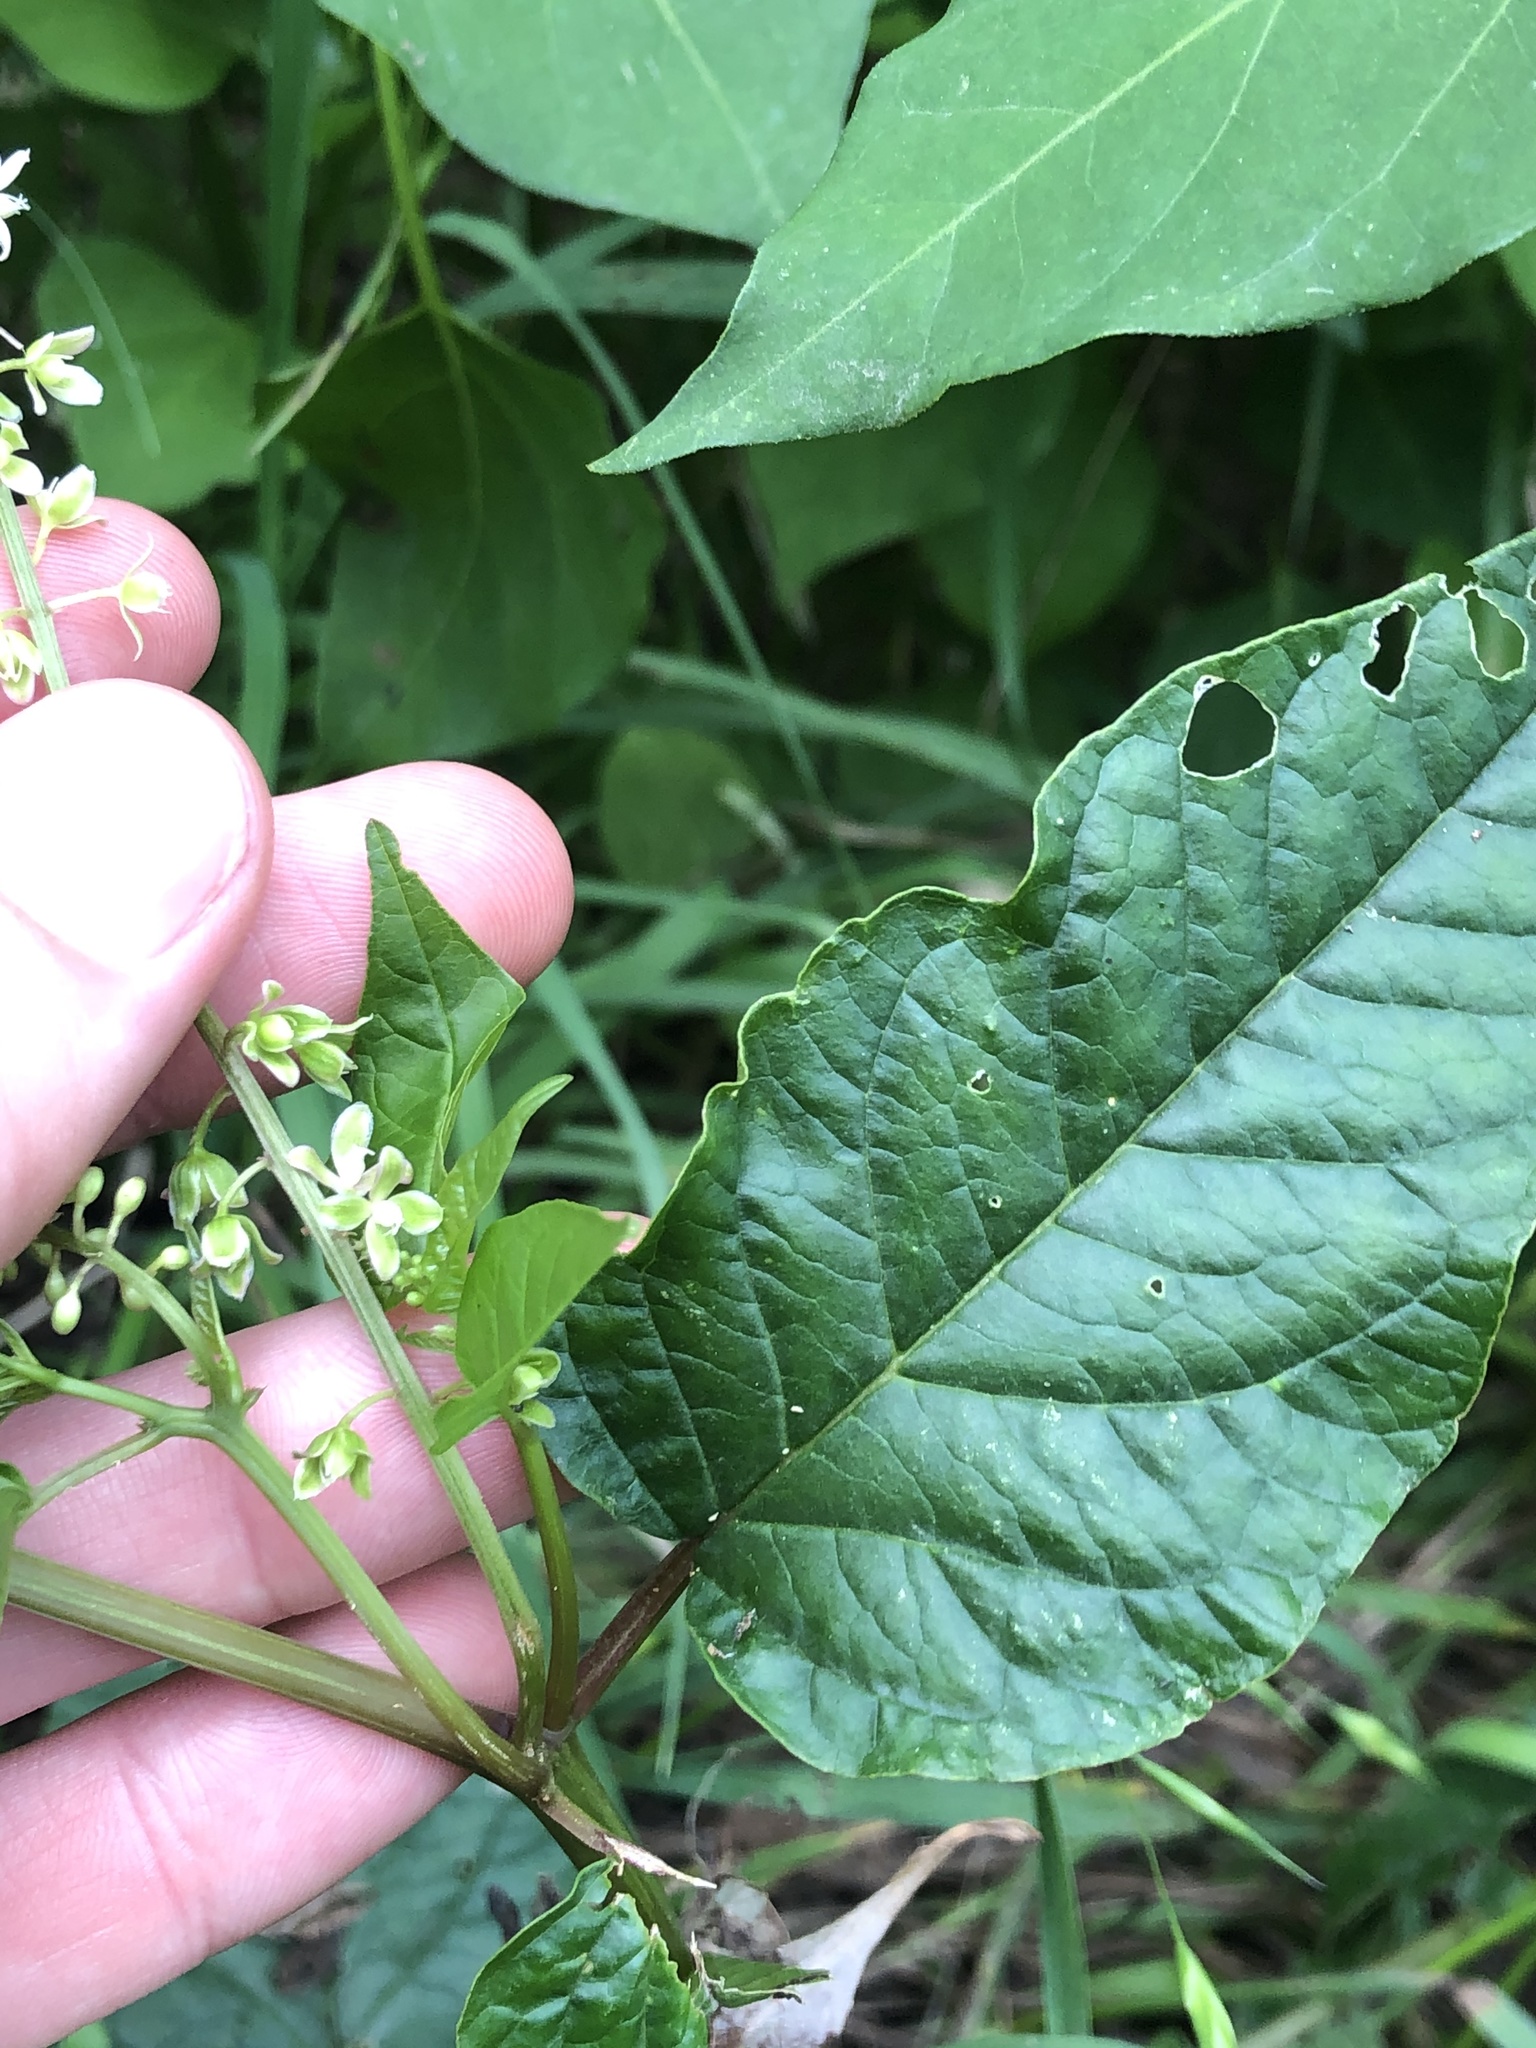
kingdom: Plantae
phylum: Tracheophyta
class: Magnoliopsida
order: Caryophyllales
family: Phytolaccaceae
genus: Rivina
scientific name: Rivina humilis
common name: Rougeplant
